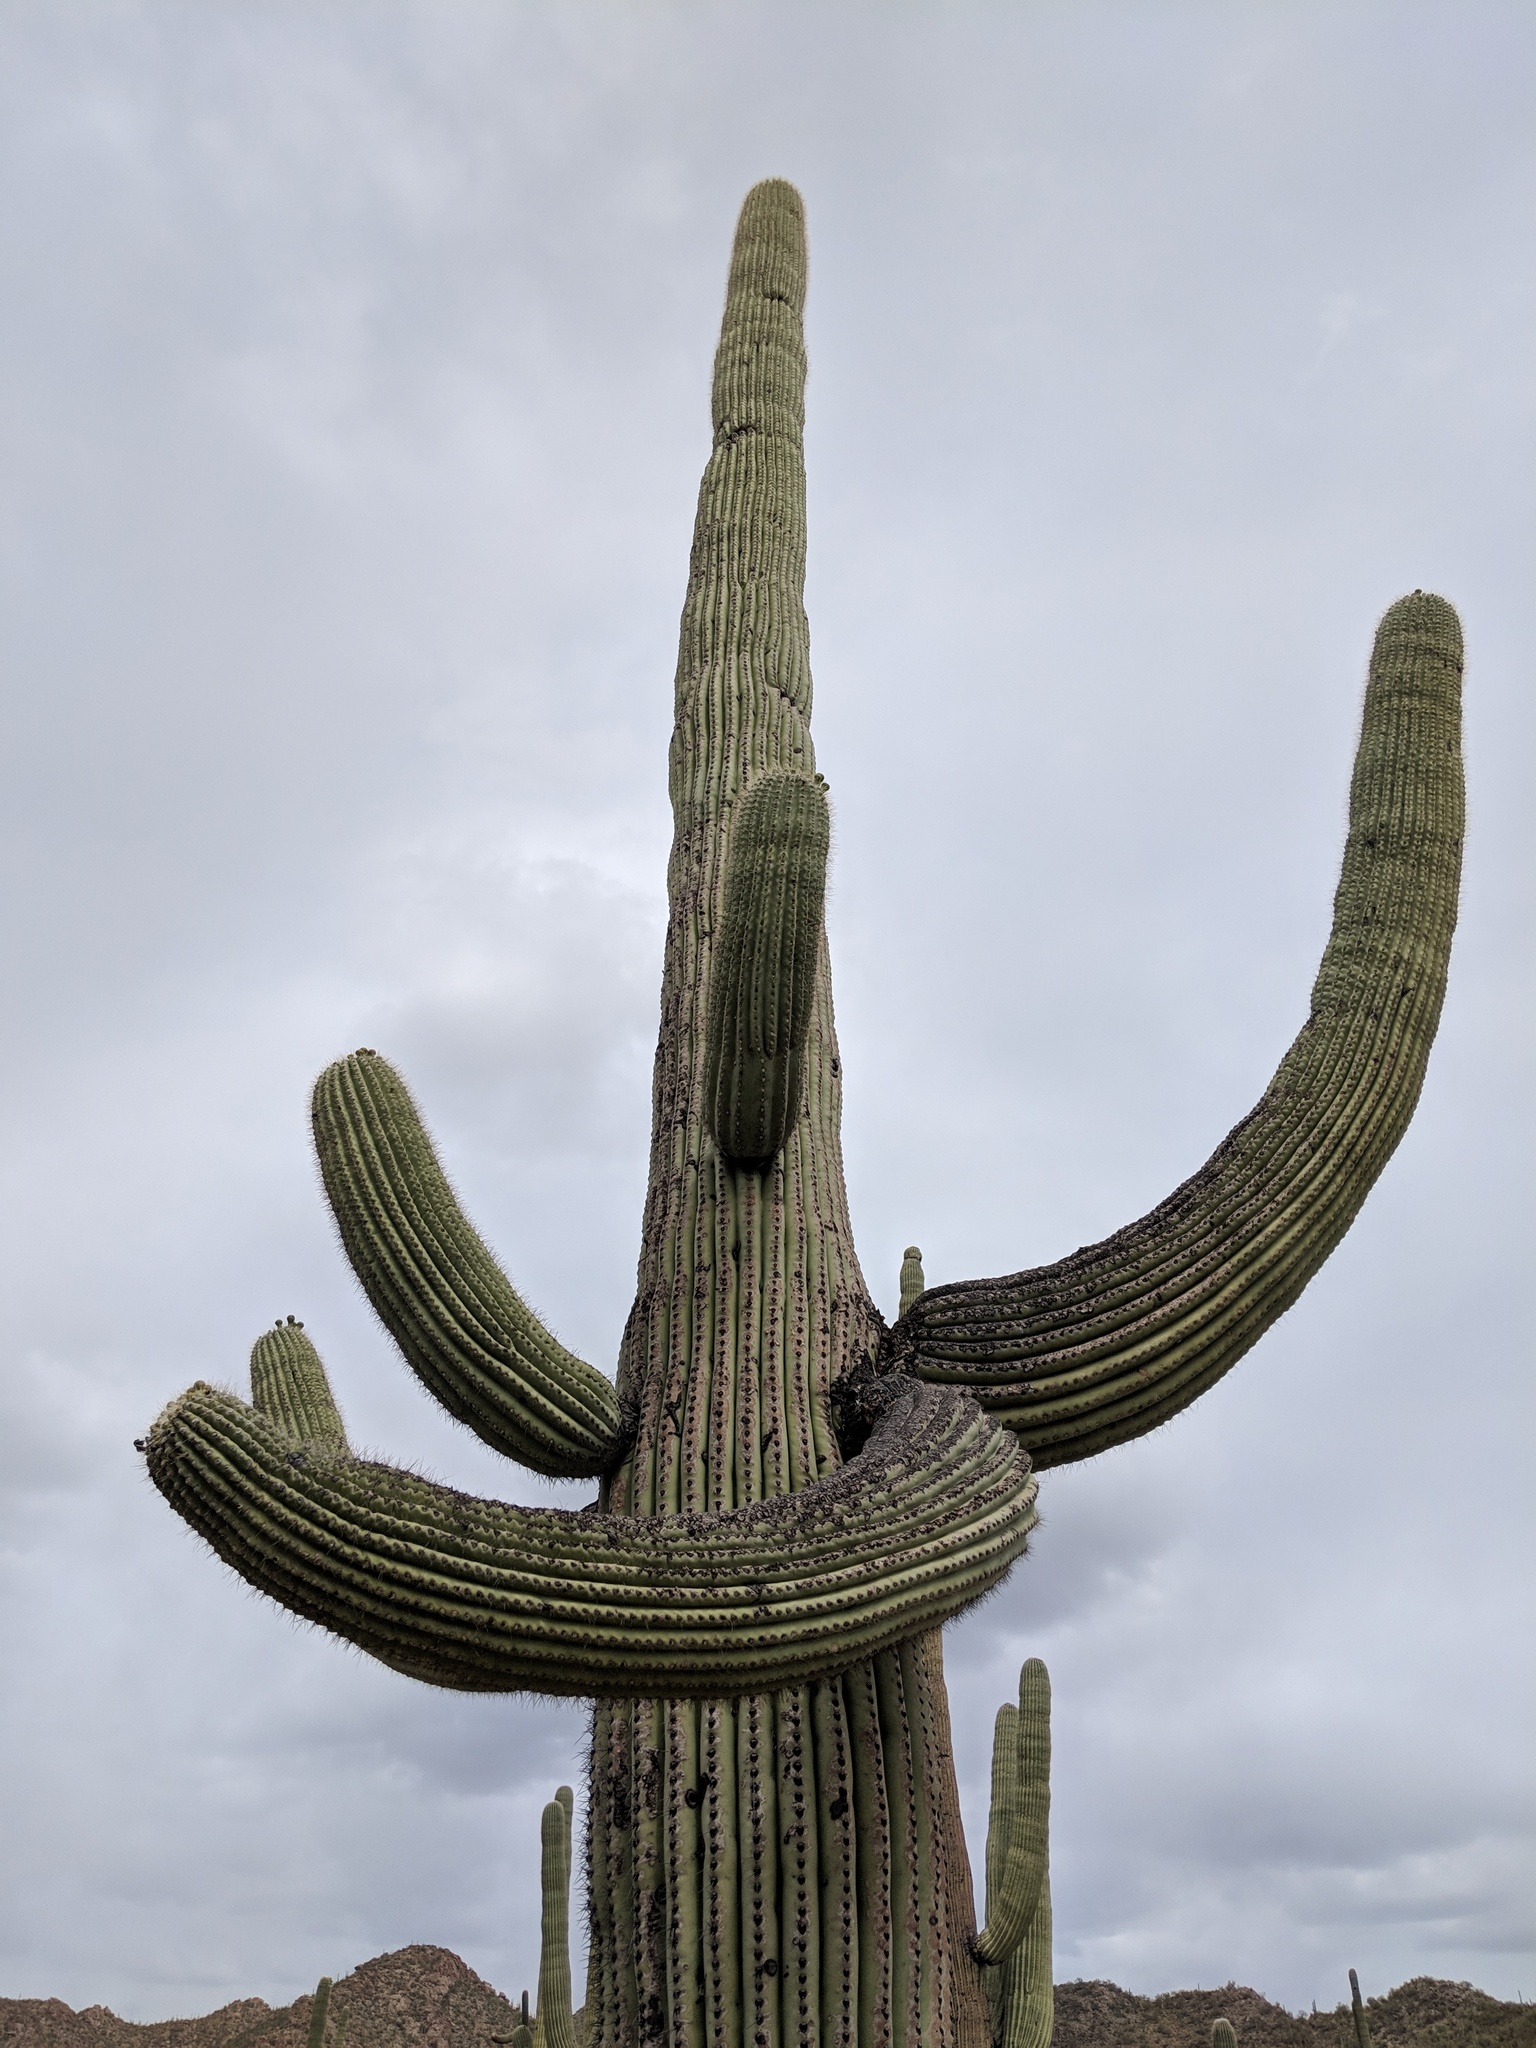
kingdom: Plantae
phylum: Tracheophyta
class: Magnoliopsida
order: Caryophyllales
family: Cactaceae
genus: Carnegiea
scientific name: Carnegiea gigantea
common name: Saguaro
